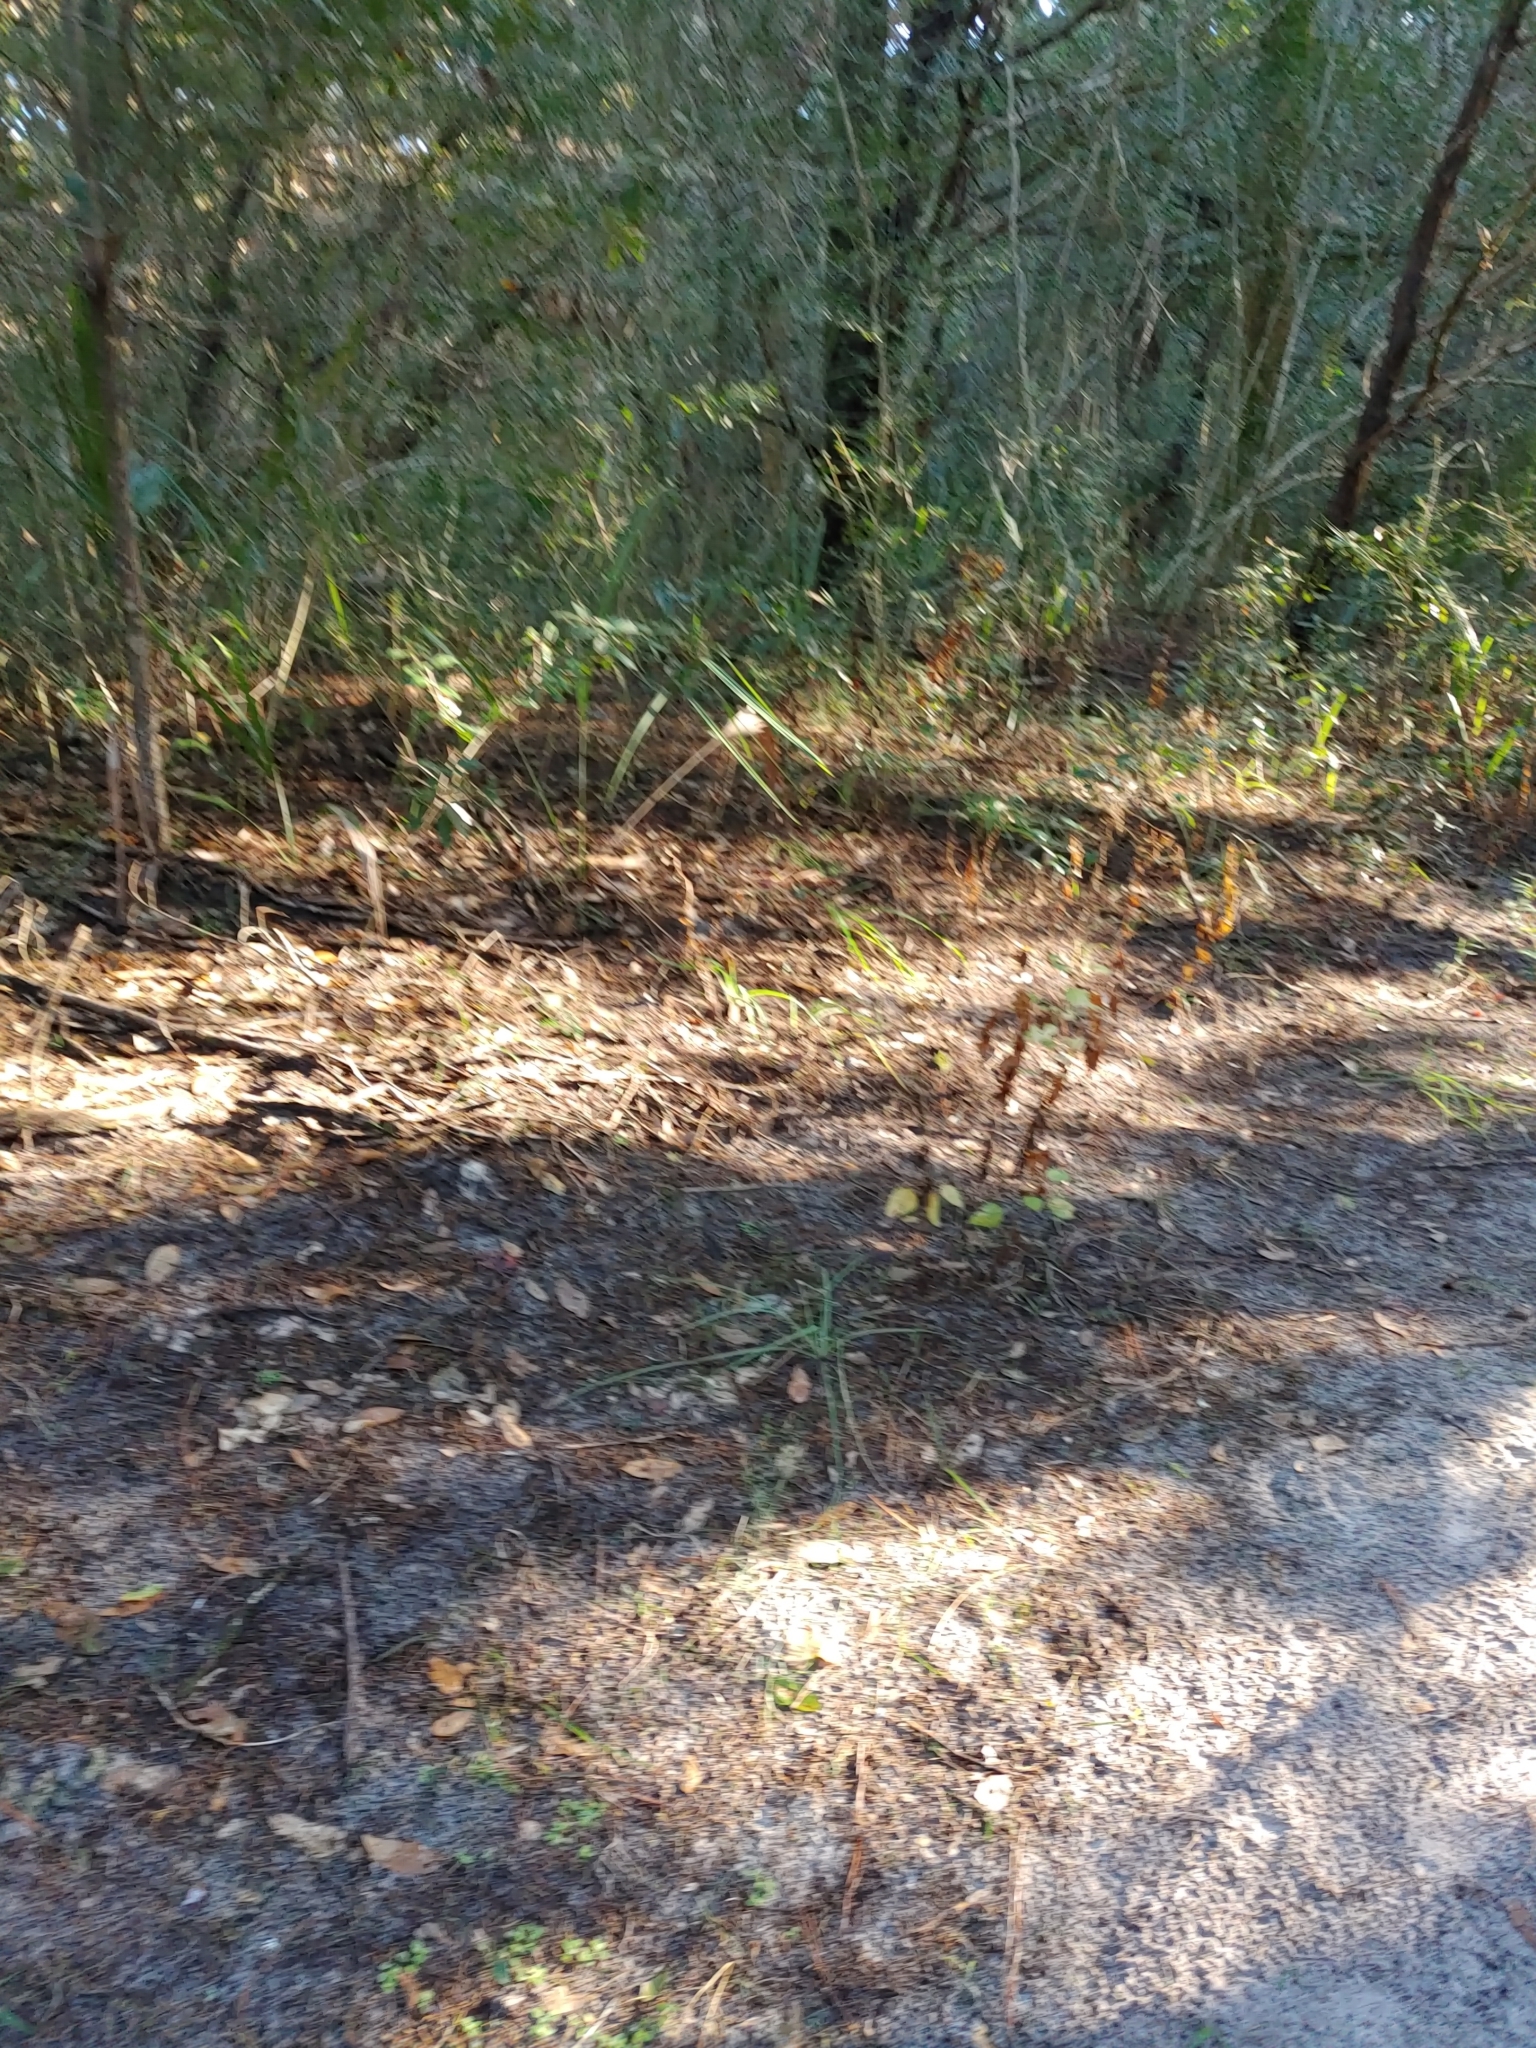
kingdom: Plantae
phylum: Tracheophyta
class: Magnoliopsida
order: Asterales
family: Asteraceae
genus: Ageratina
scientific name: Ageratina jucunda
